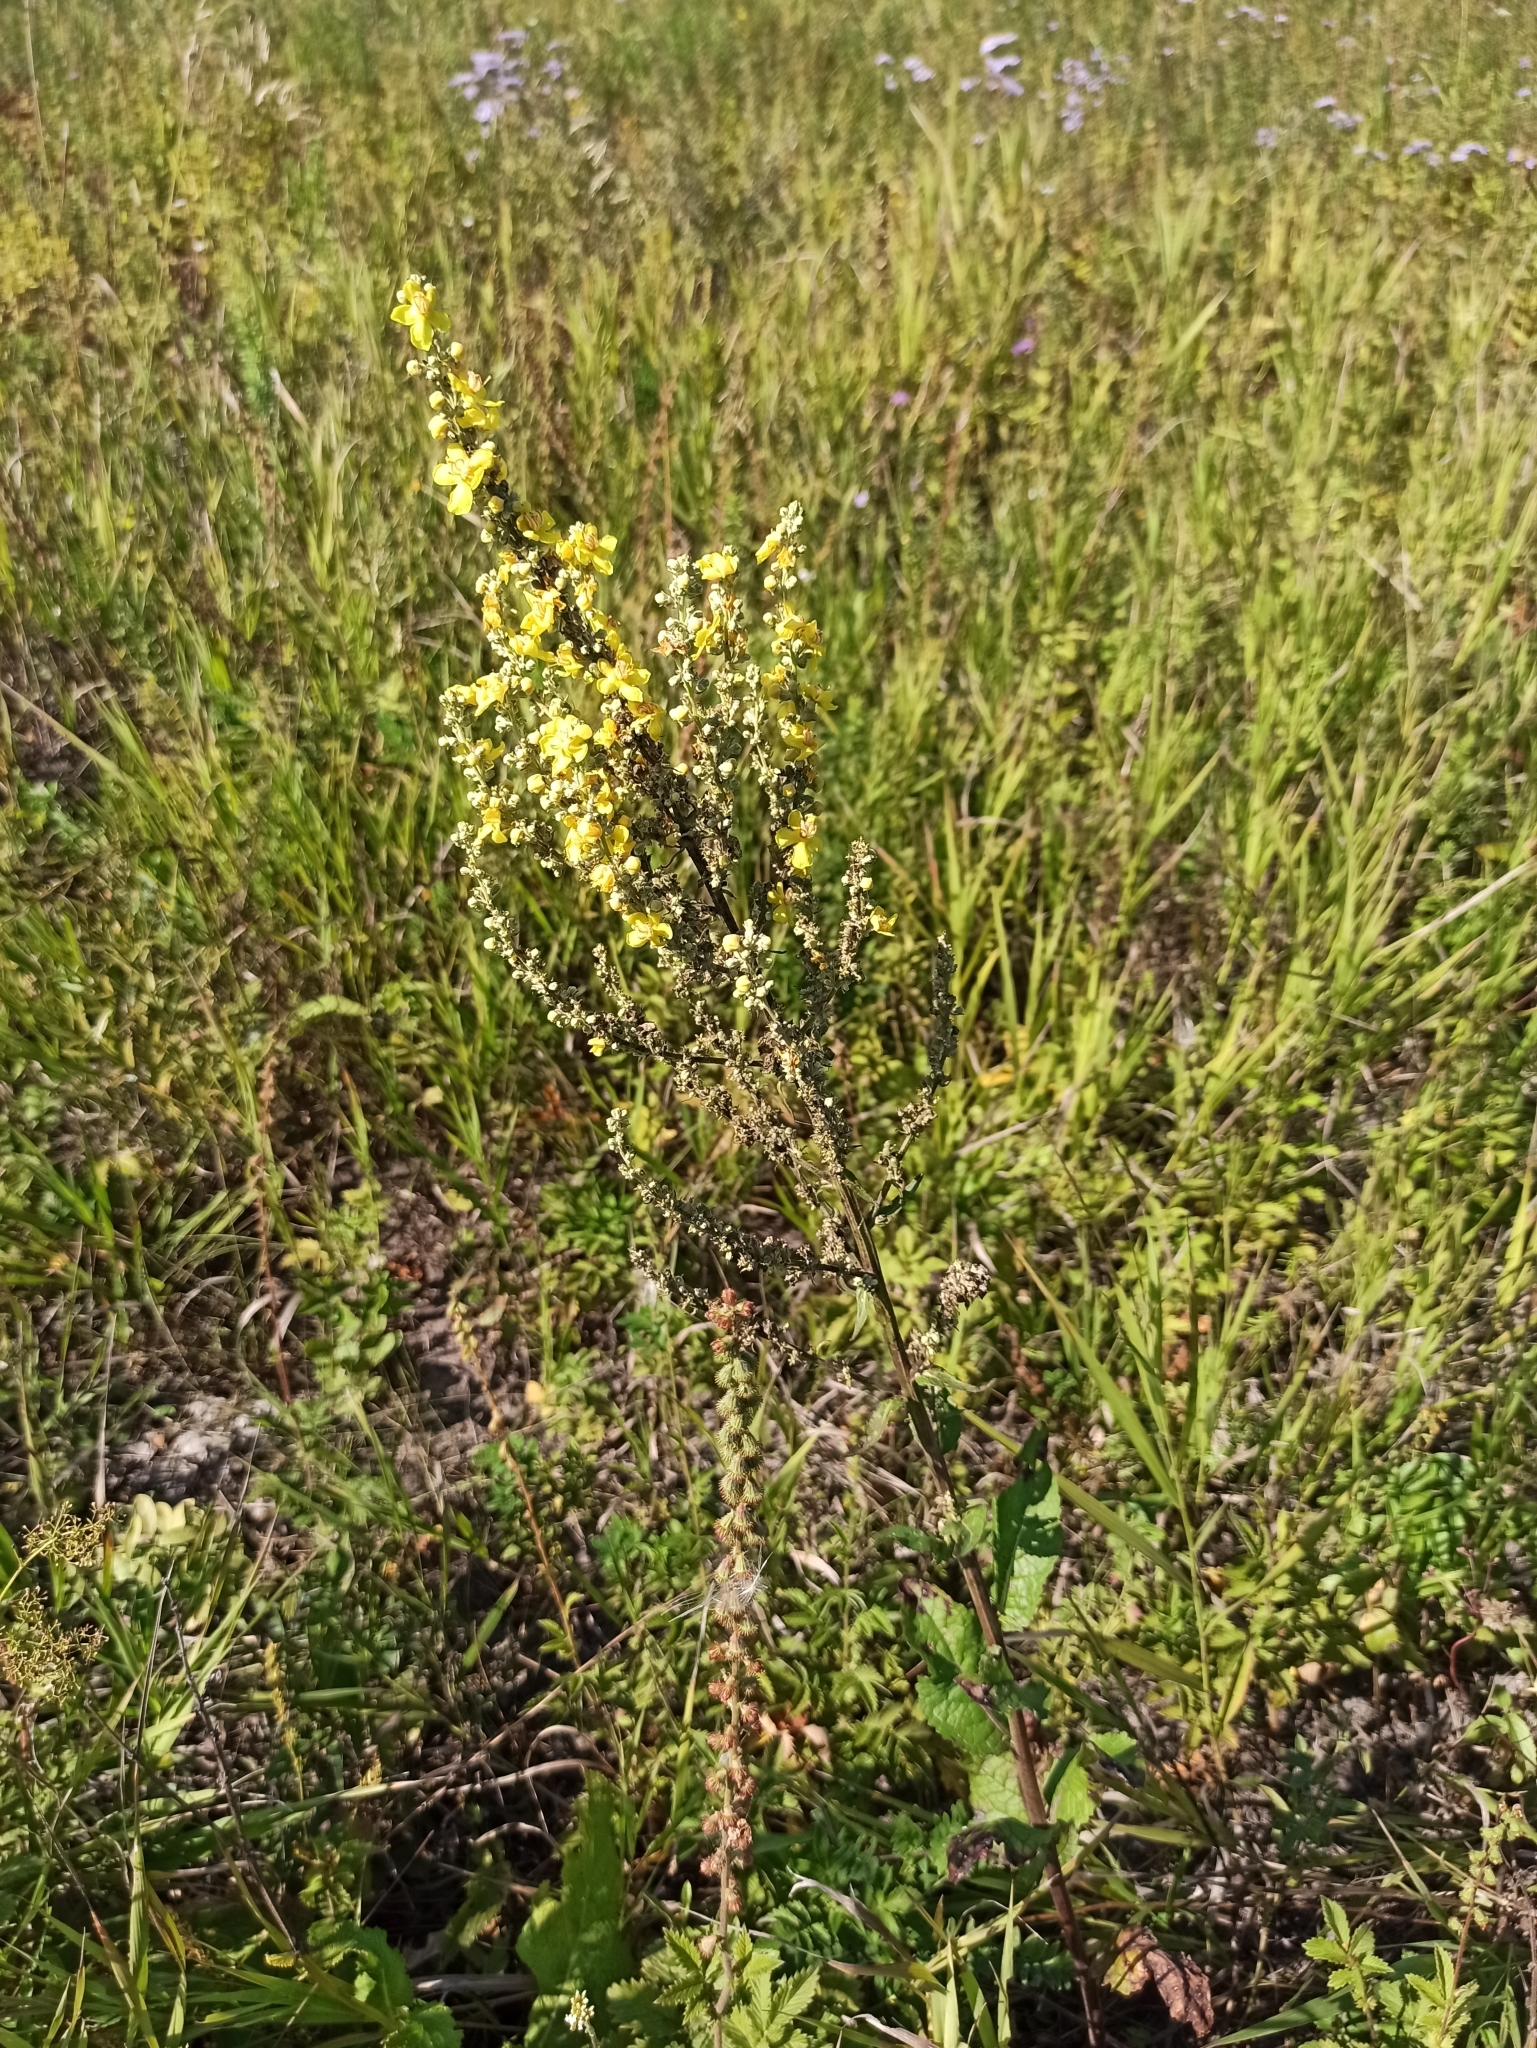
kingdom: Plantae
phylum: Tracheophyta
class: Magnoliopsida
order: Lamiales
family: Scrophulariaceae
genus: Verbascum
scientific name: Verbascum lychnitis
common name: White mullein
